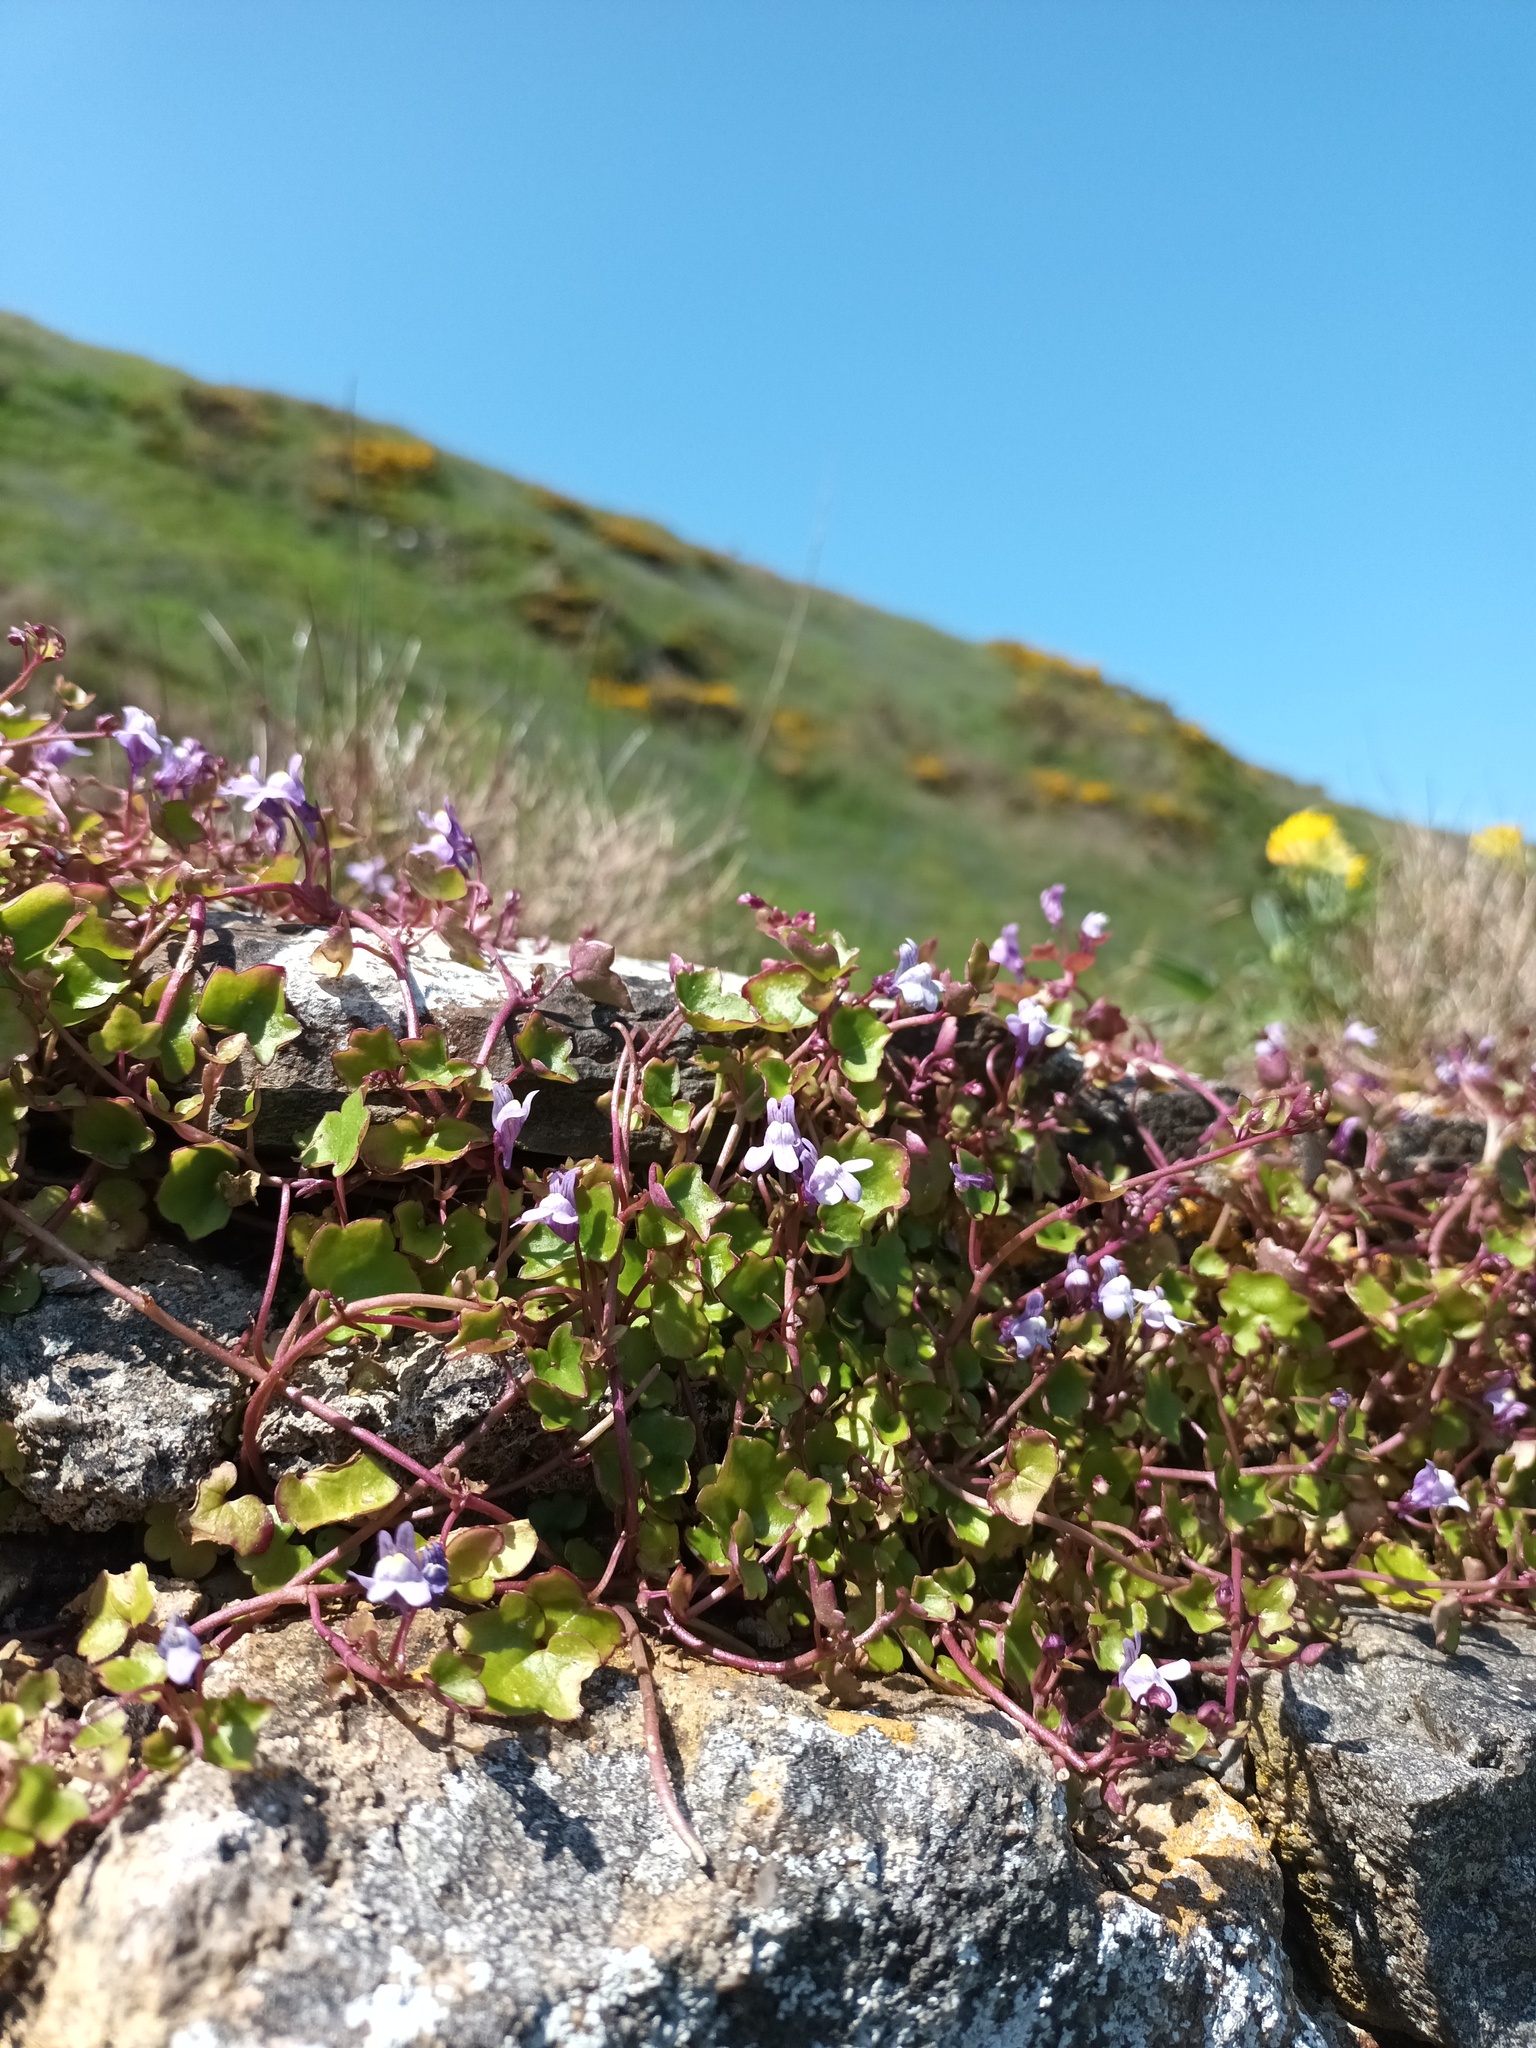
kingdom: Plantae
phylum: Tracheophyta
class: Magnoliopsida
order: Lamiales
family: Plantaginaceae
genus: Cymbalaria
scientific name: Cymbalaria muralis
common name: Ivy-leaved toadflax
